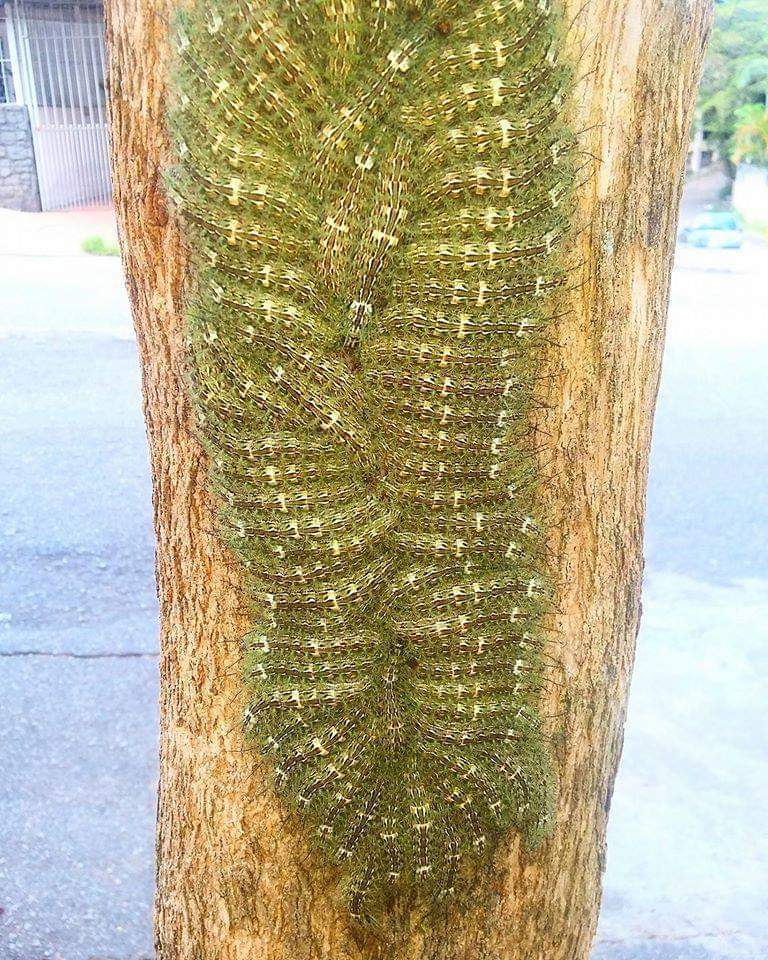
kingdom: Animalia
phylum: Arthropoda
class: Insecta
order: Lepidoptera
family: Saturniidae
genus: Lonomia
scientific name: Lonomia obliqua
